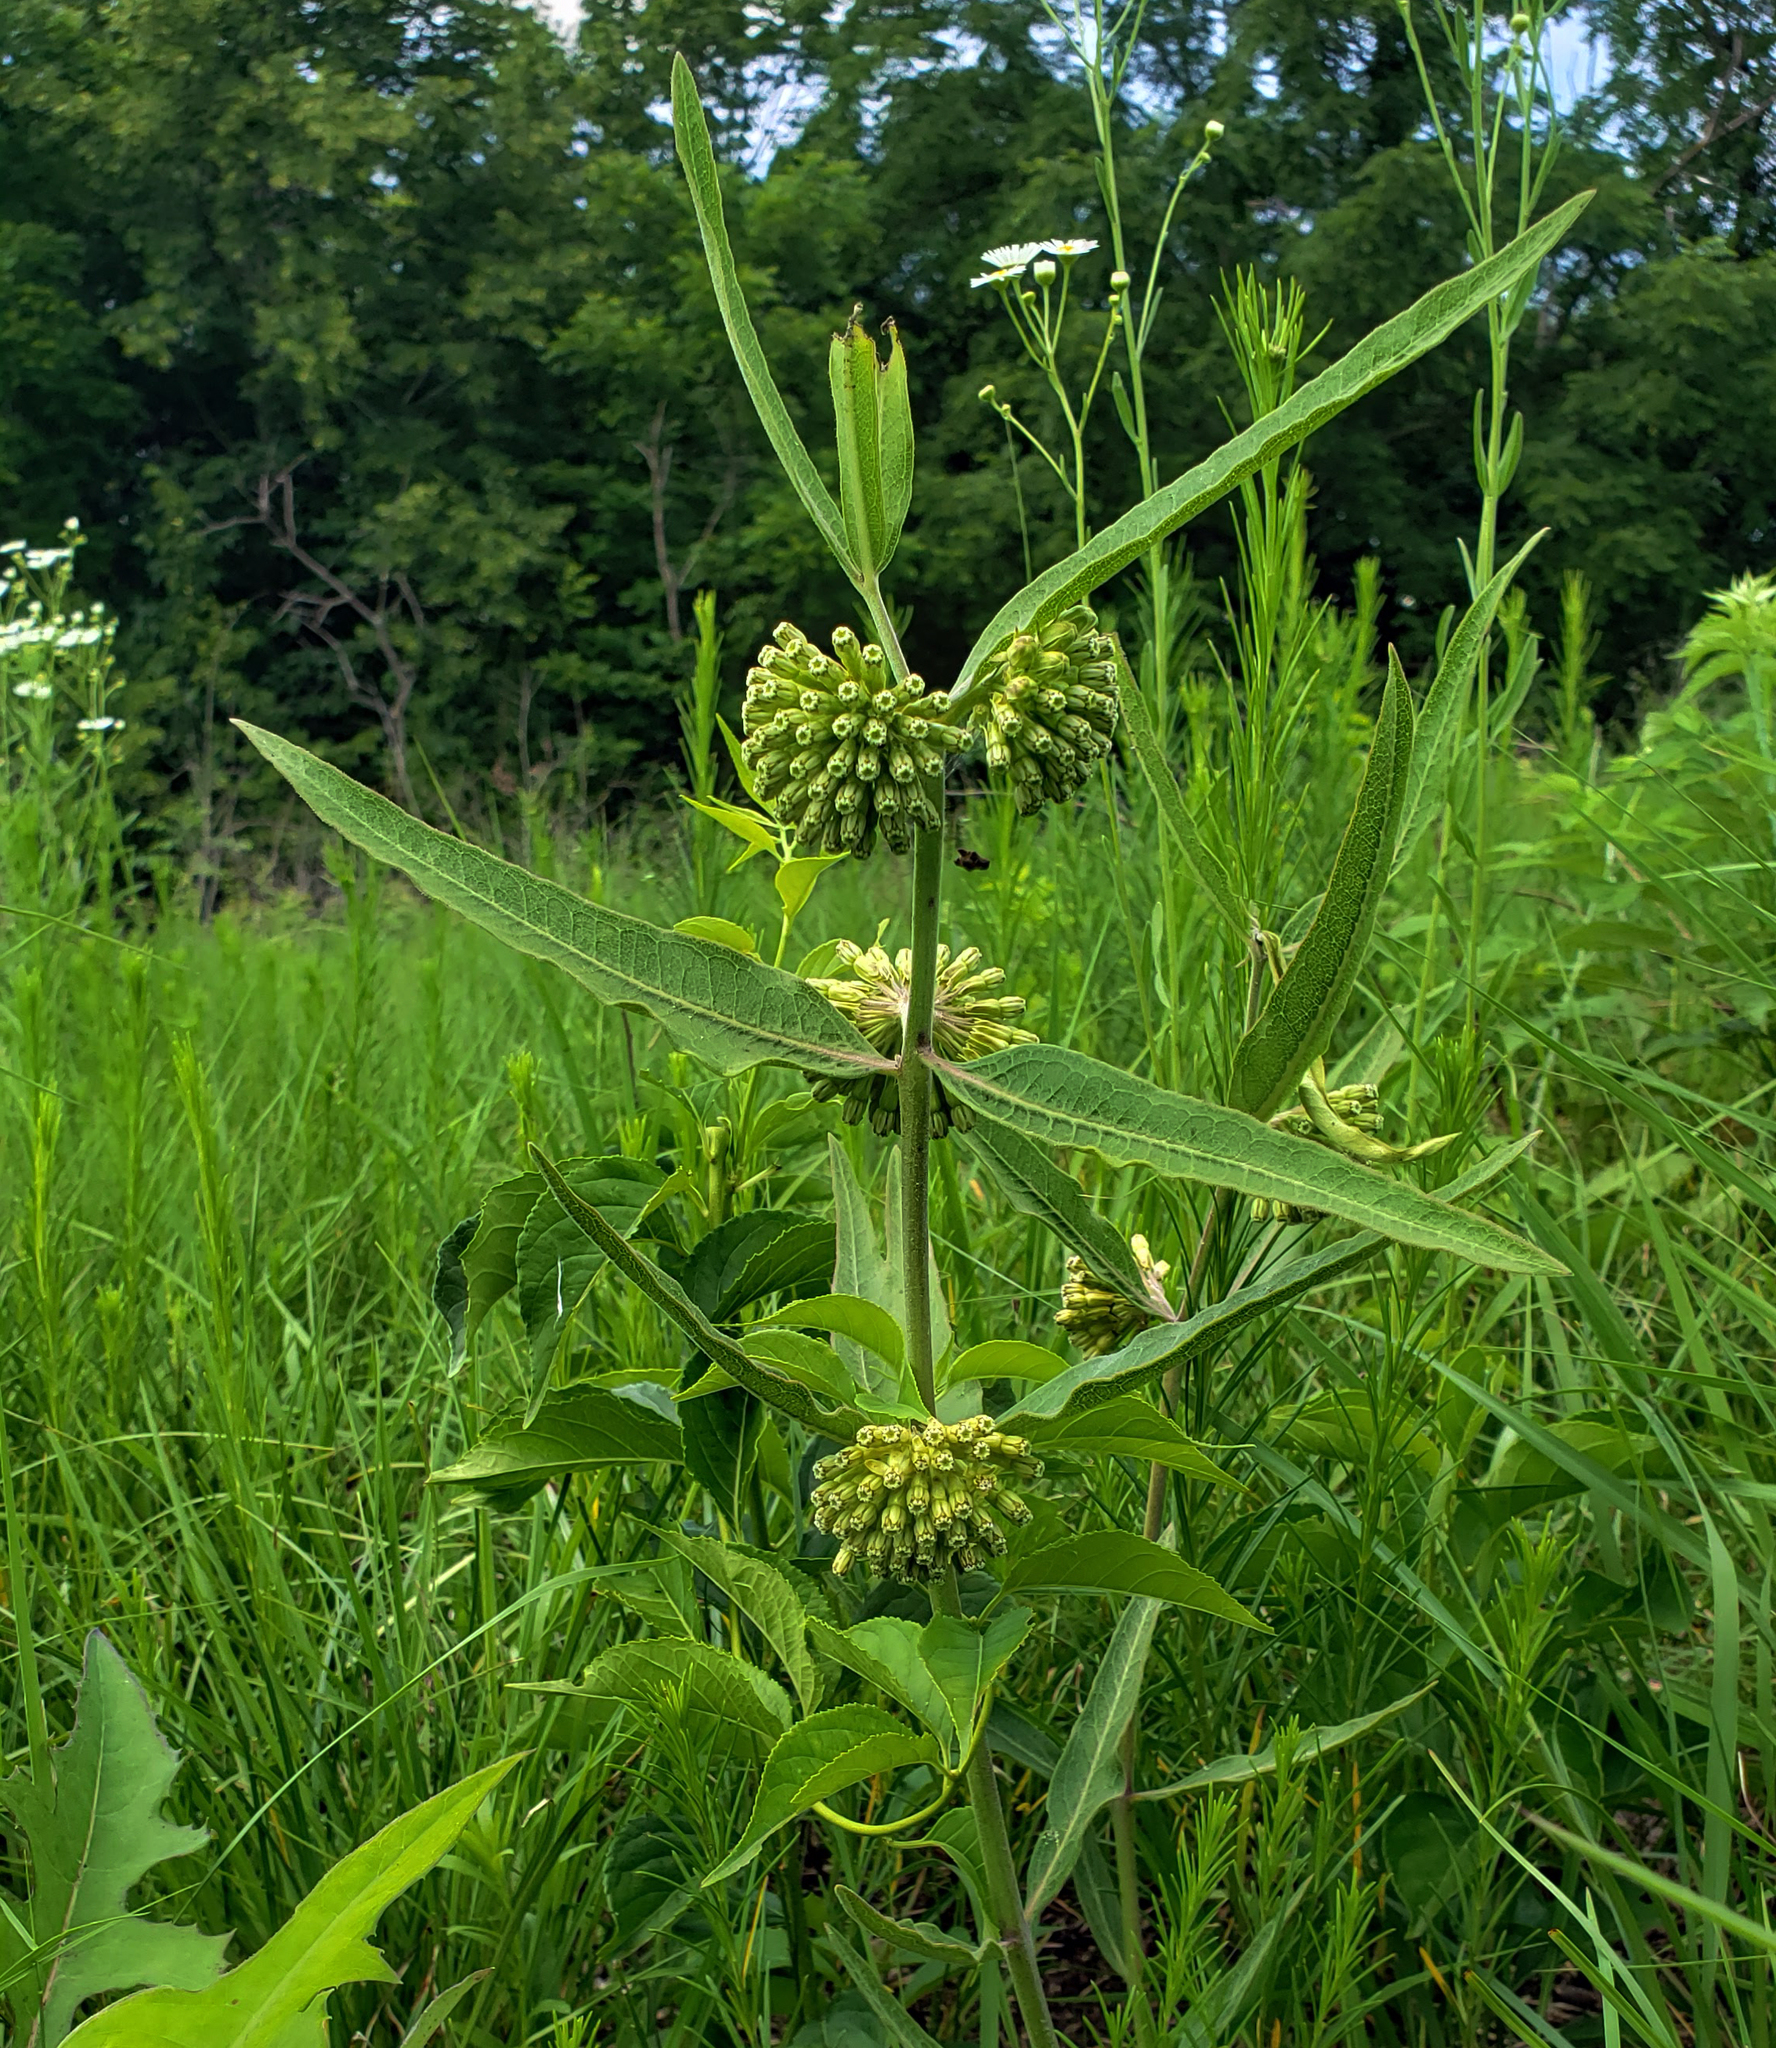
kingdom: Plantae
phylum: Tracheophyta
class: Magnoliopsida
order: Gentianales
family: Apocynaceae
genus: Asclepias
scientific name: Asclepias viridiflora
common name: Green comet milkweed
